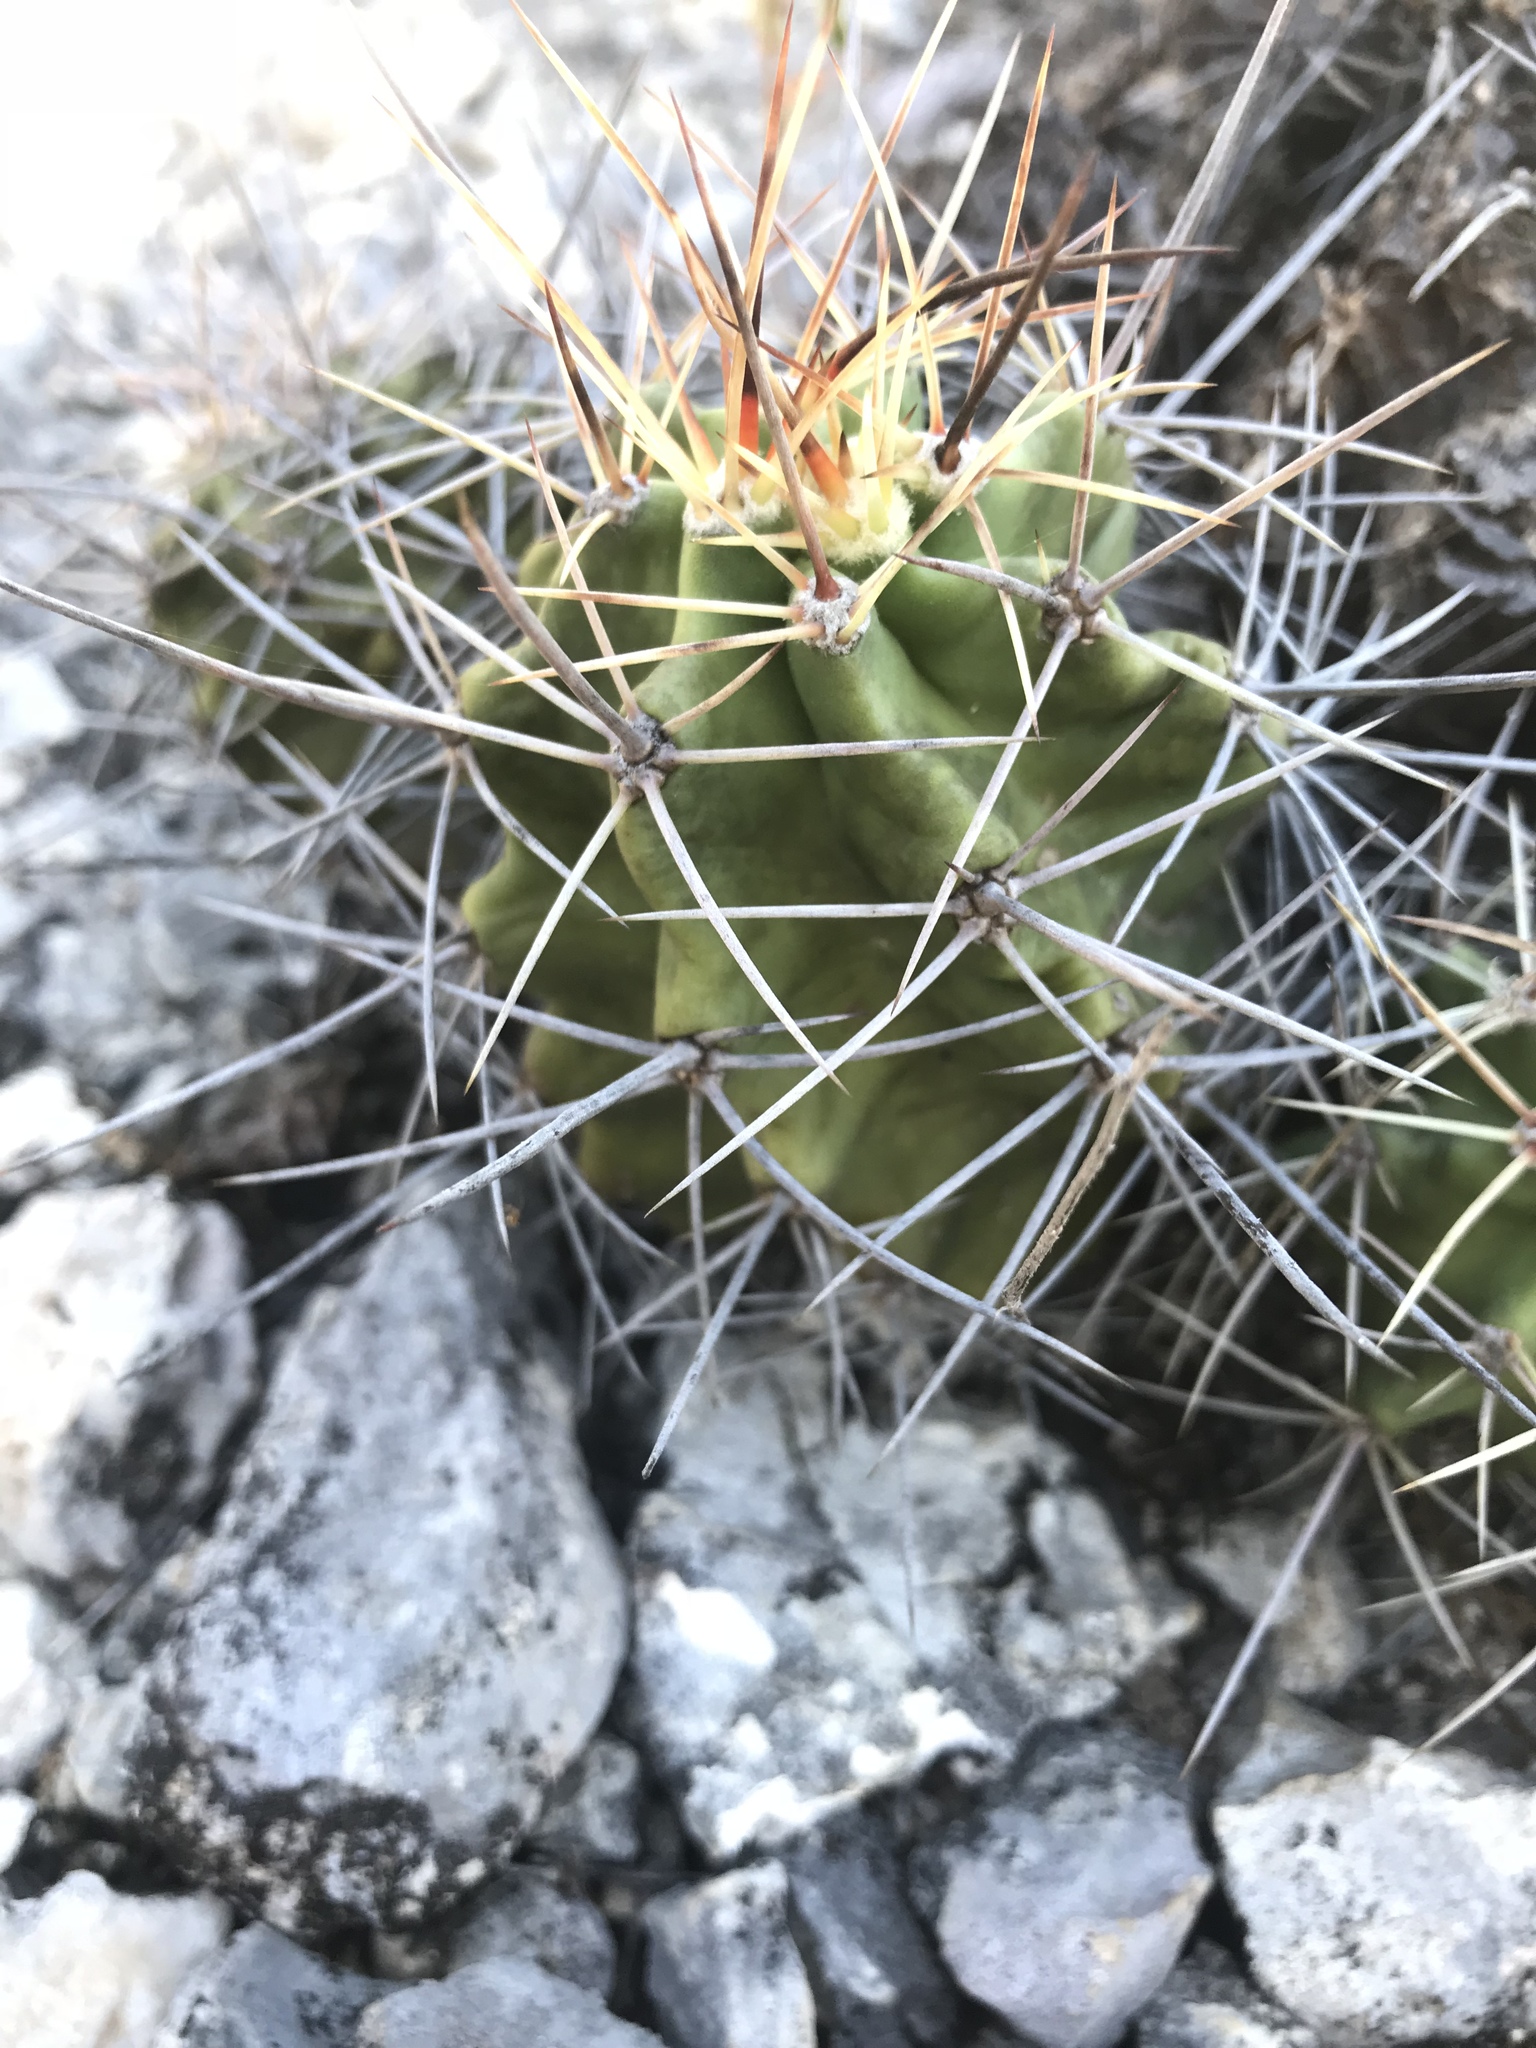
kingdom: Plantae
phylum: Tracheophyta
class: Magnoliopsida
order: Caryophyllales
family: Cactaceae
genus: Echinocereus
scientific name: Echinocereus coccineus
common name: Scarlet hedgehog cactus
